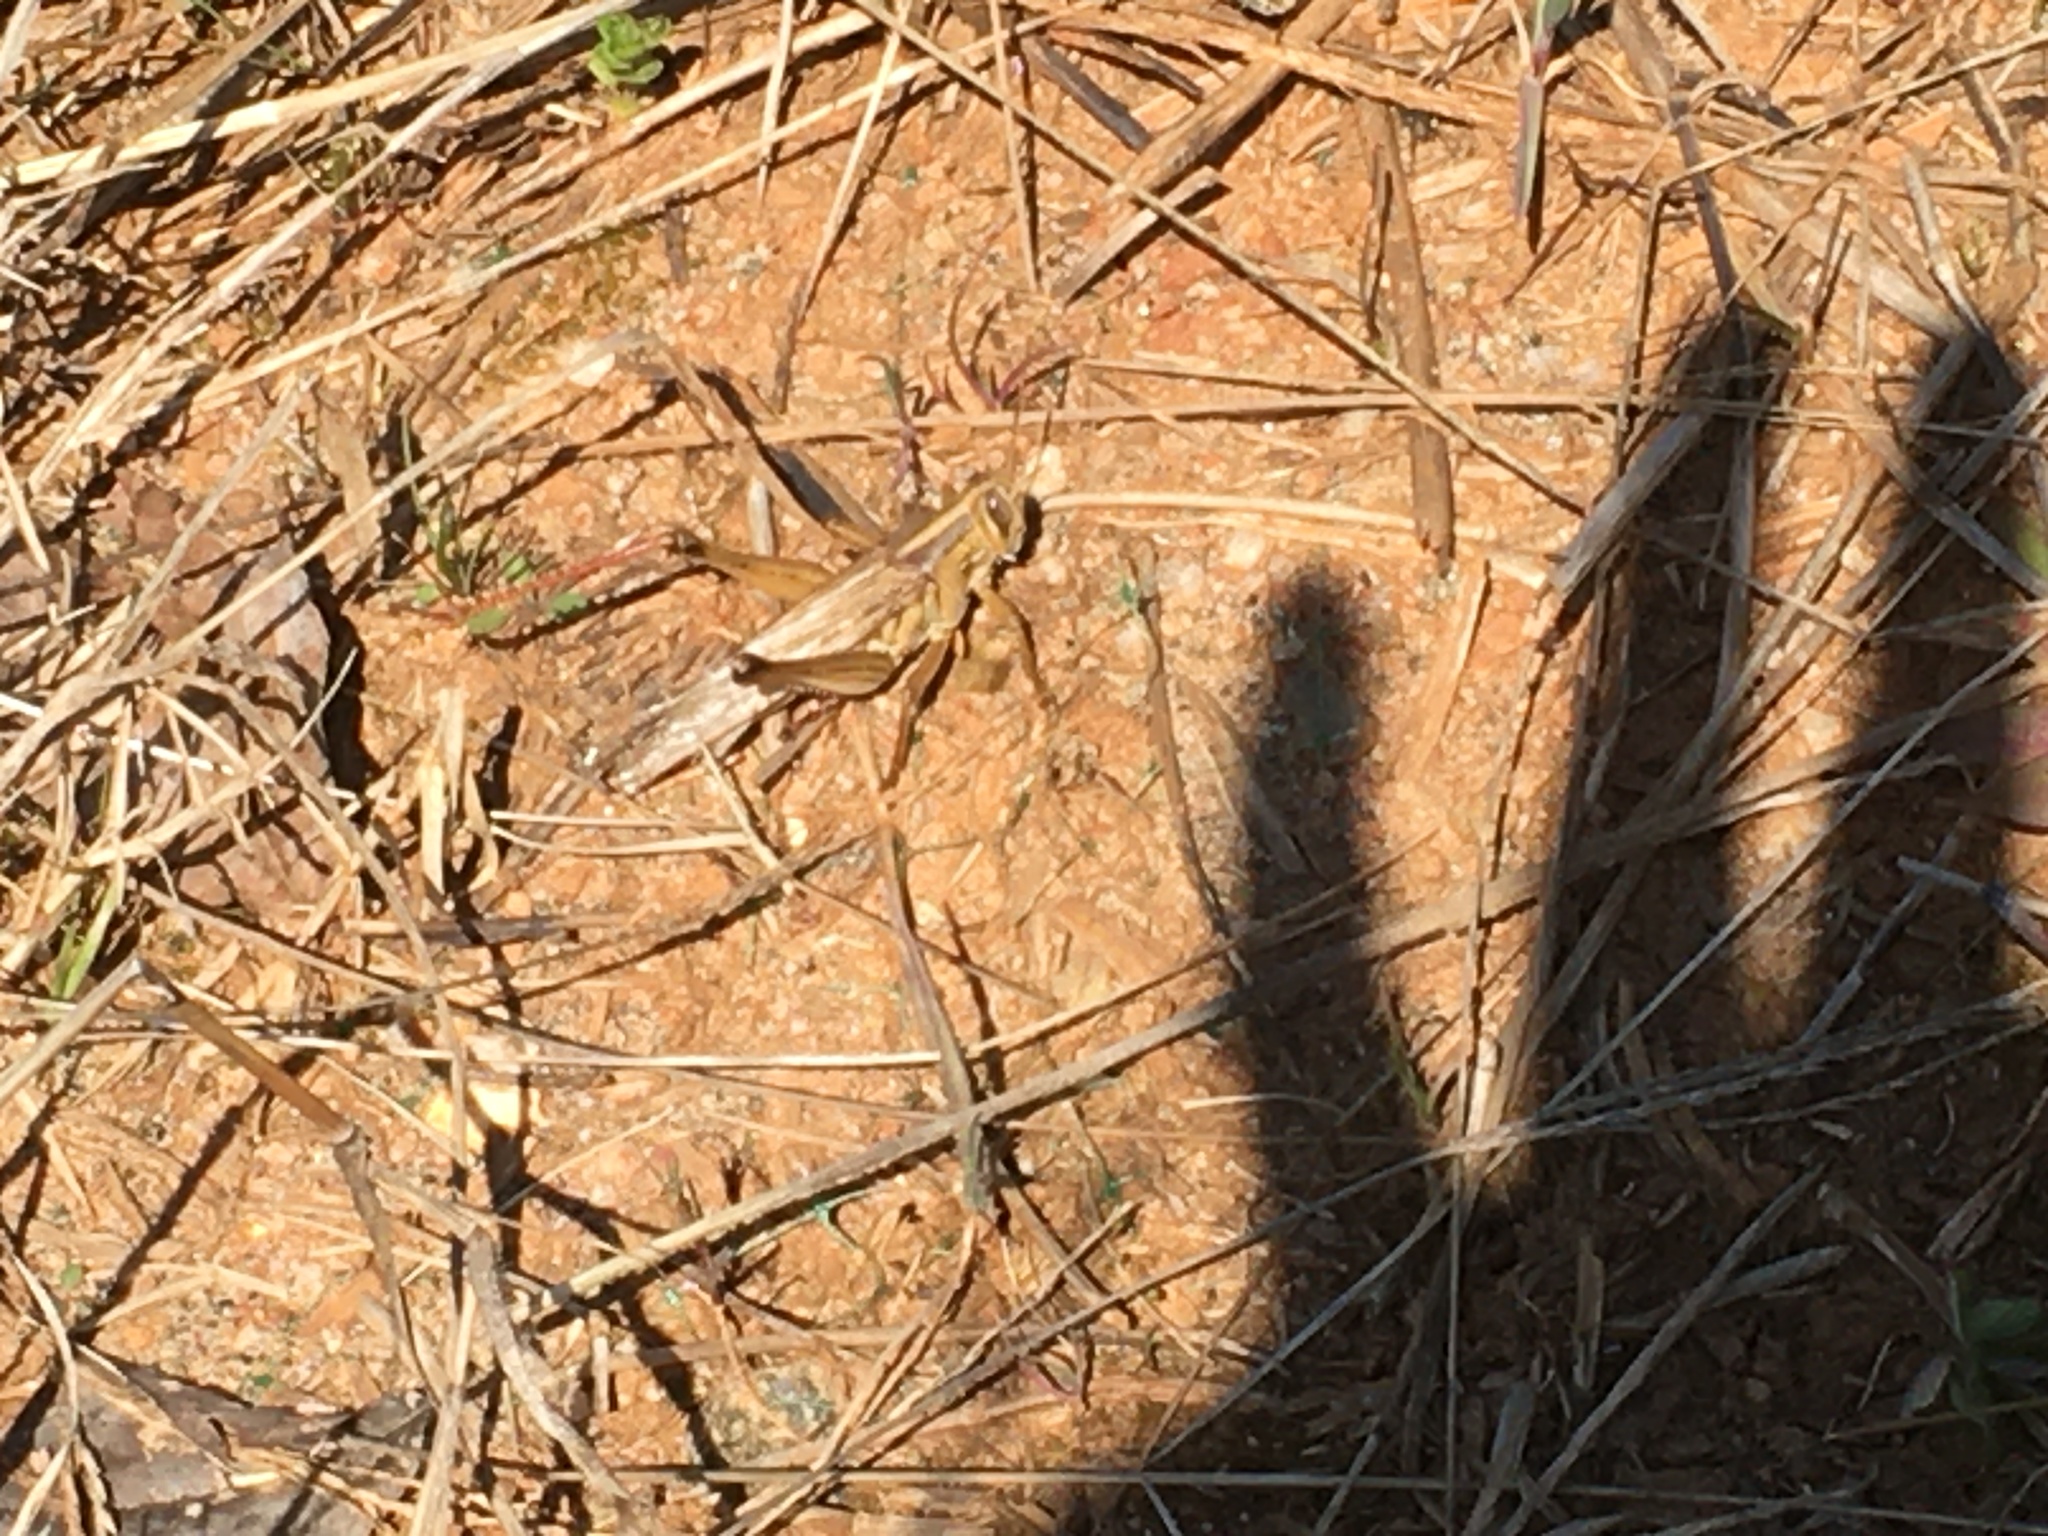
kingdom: Animalia
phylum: Arthropoda
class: Insecta
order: Orthoptera
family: Acrididae
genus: Schistocerca
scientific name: Schistocerca americana
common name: American bird locust
